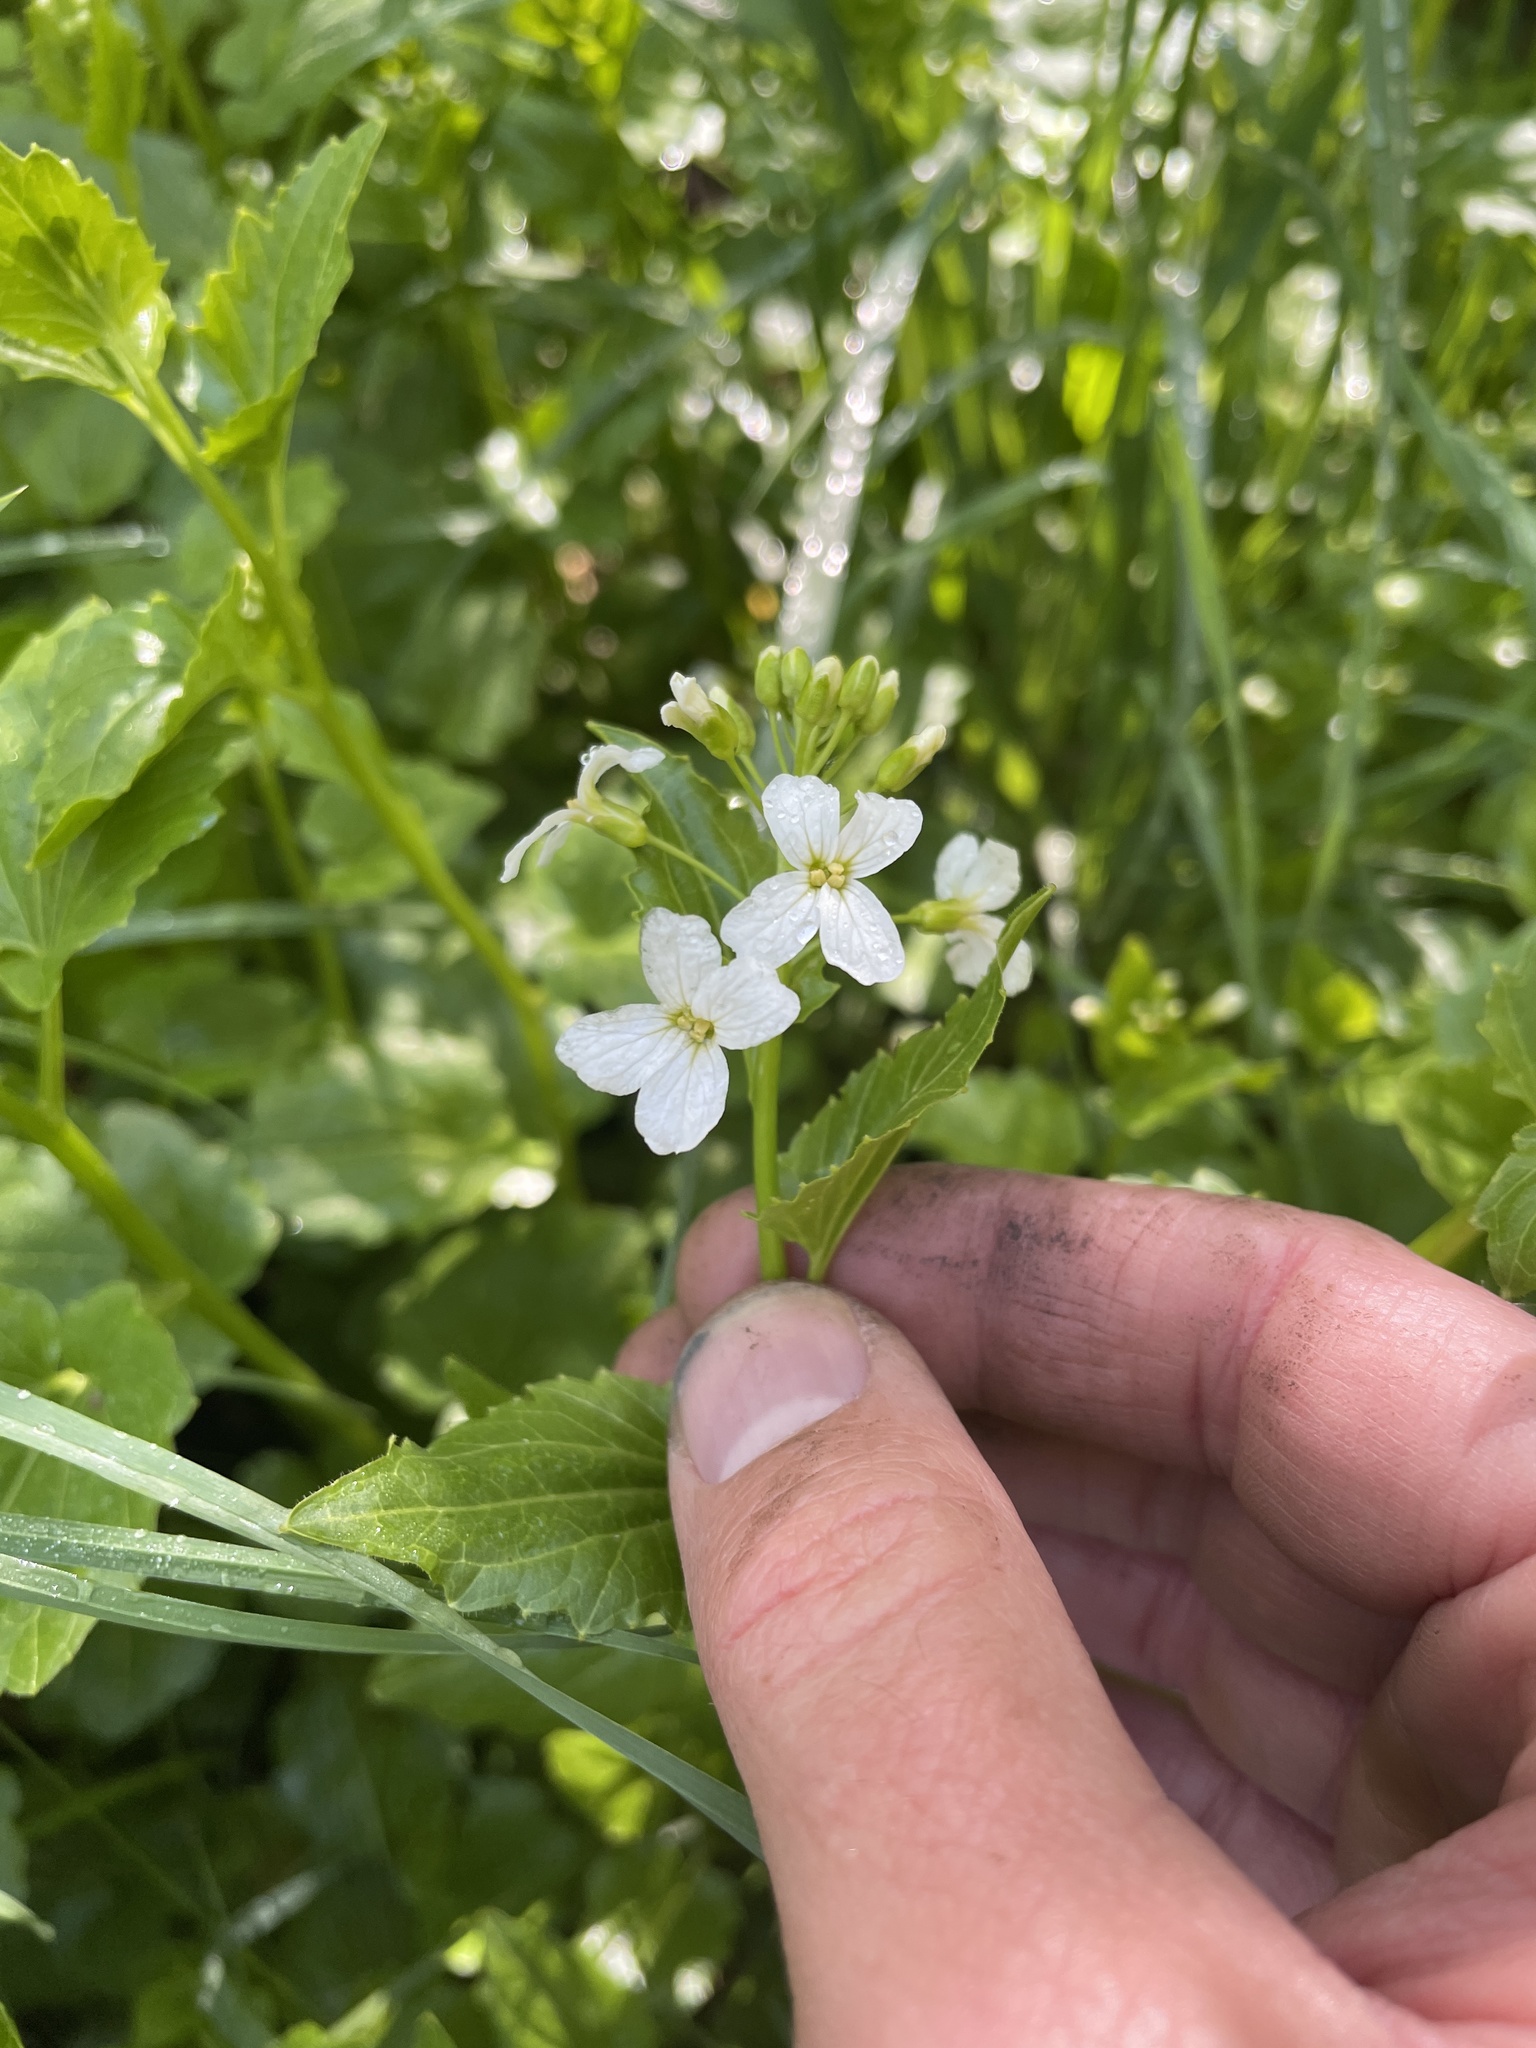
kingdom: Plantae
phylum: Tracheophyta
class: Magnoliopsida
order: Brassicales
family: Brassicaceae
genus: Cardamine
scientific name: Cardamine cordifolia
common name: Heart-leaf bittercress
